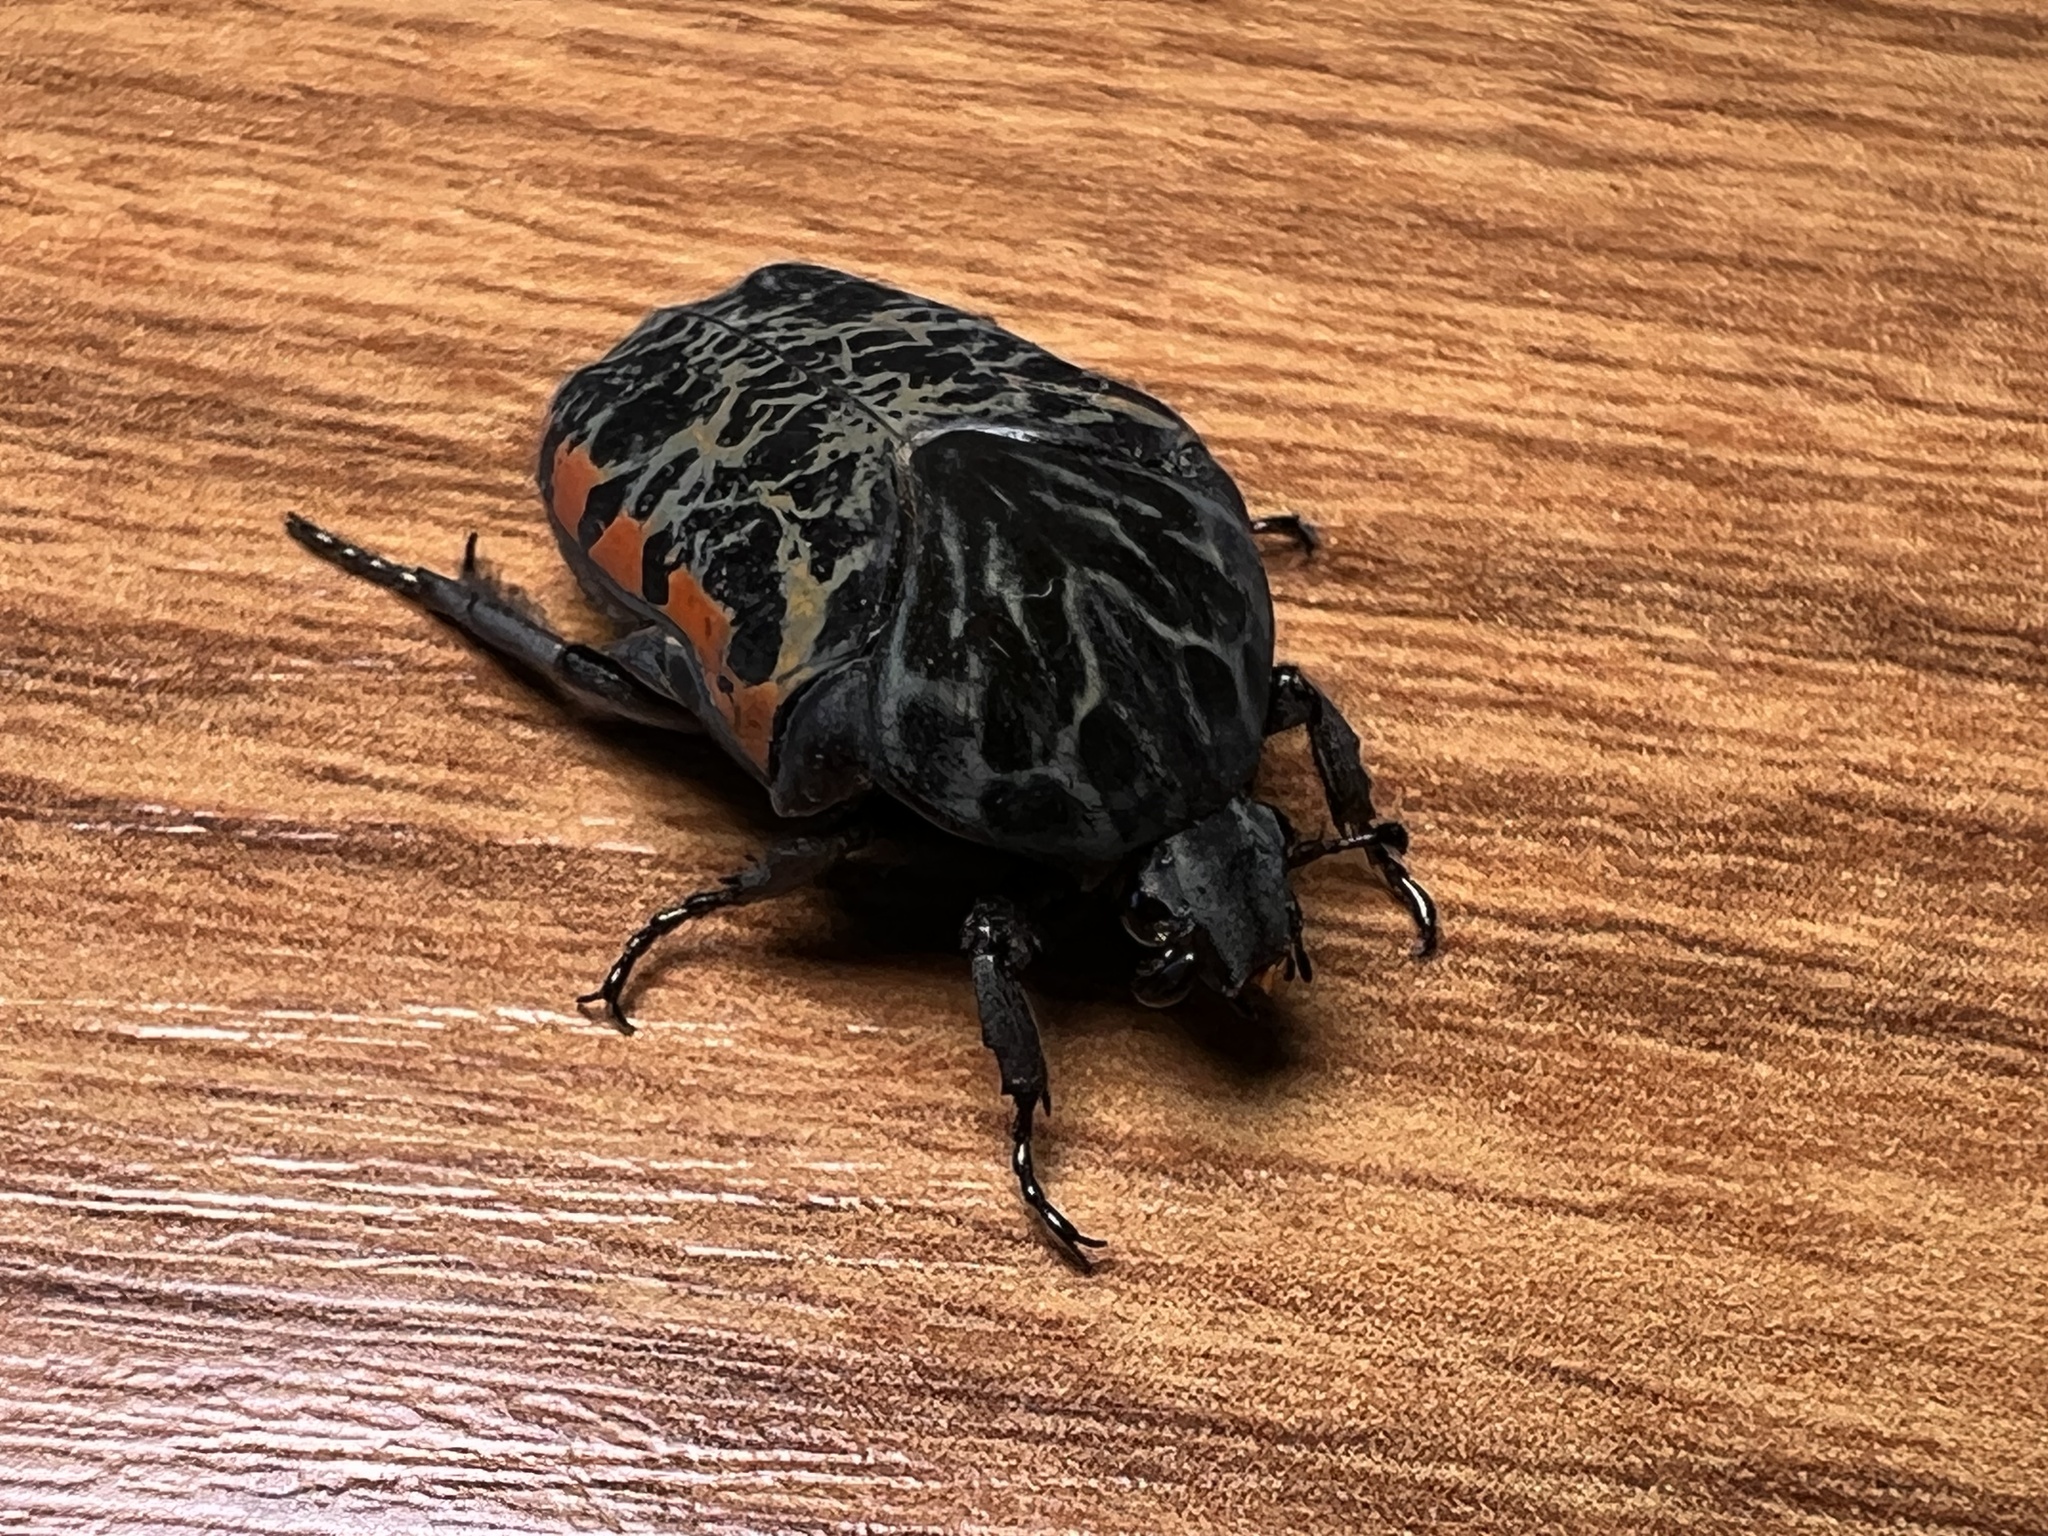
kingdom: Animalia
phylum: Arthropoda
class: Insecta
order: Coleoptera
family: Scarabaeidae
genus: Gymnetis
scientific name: Gymnetis rufilatris
